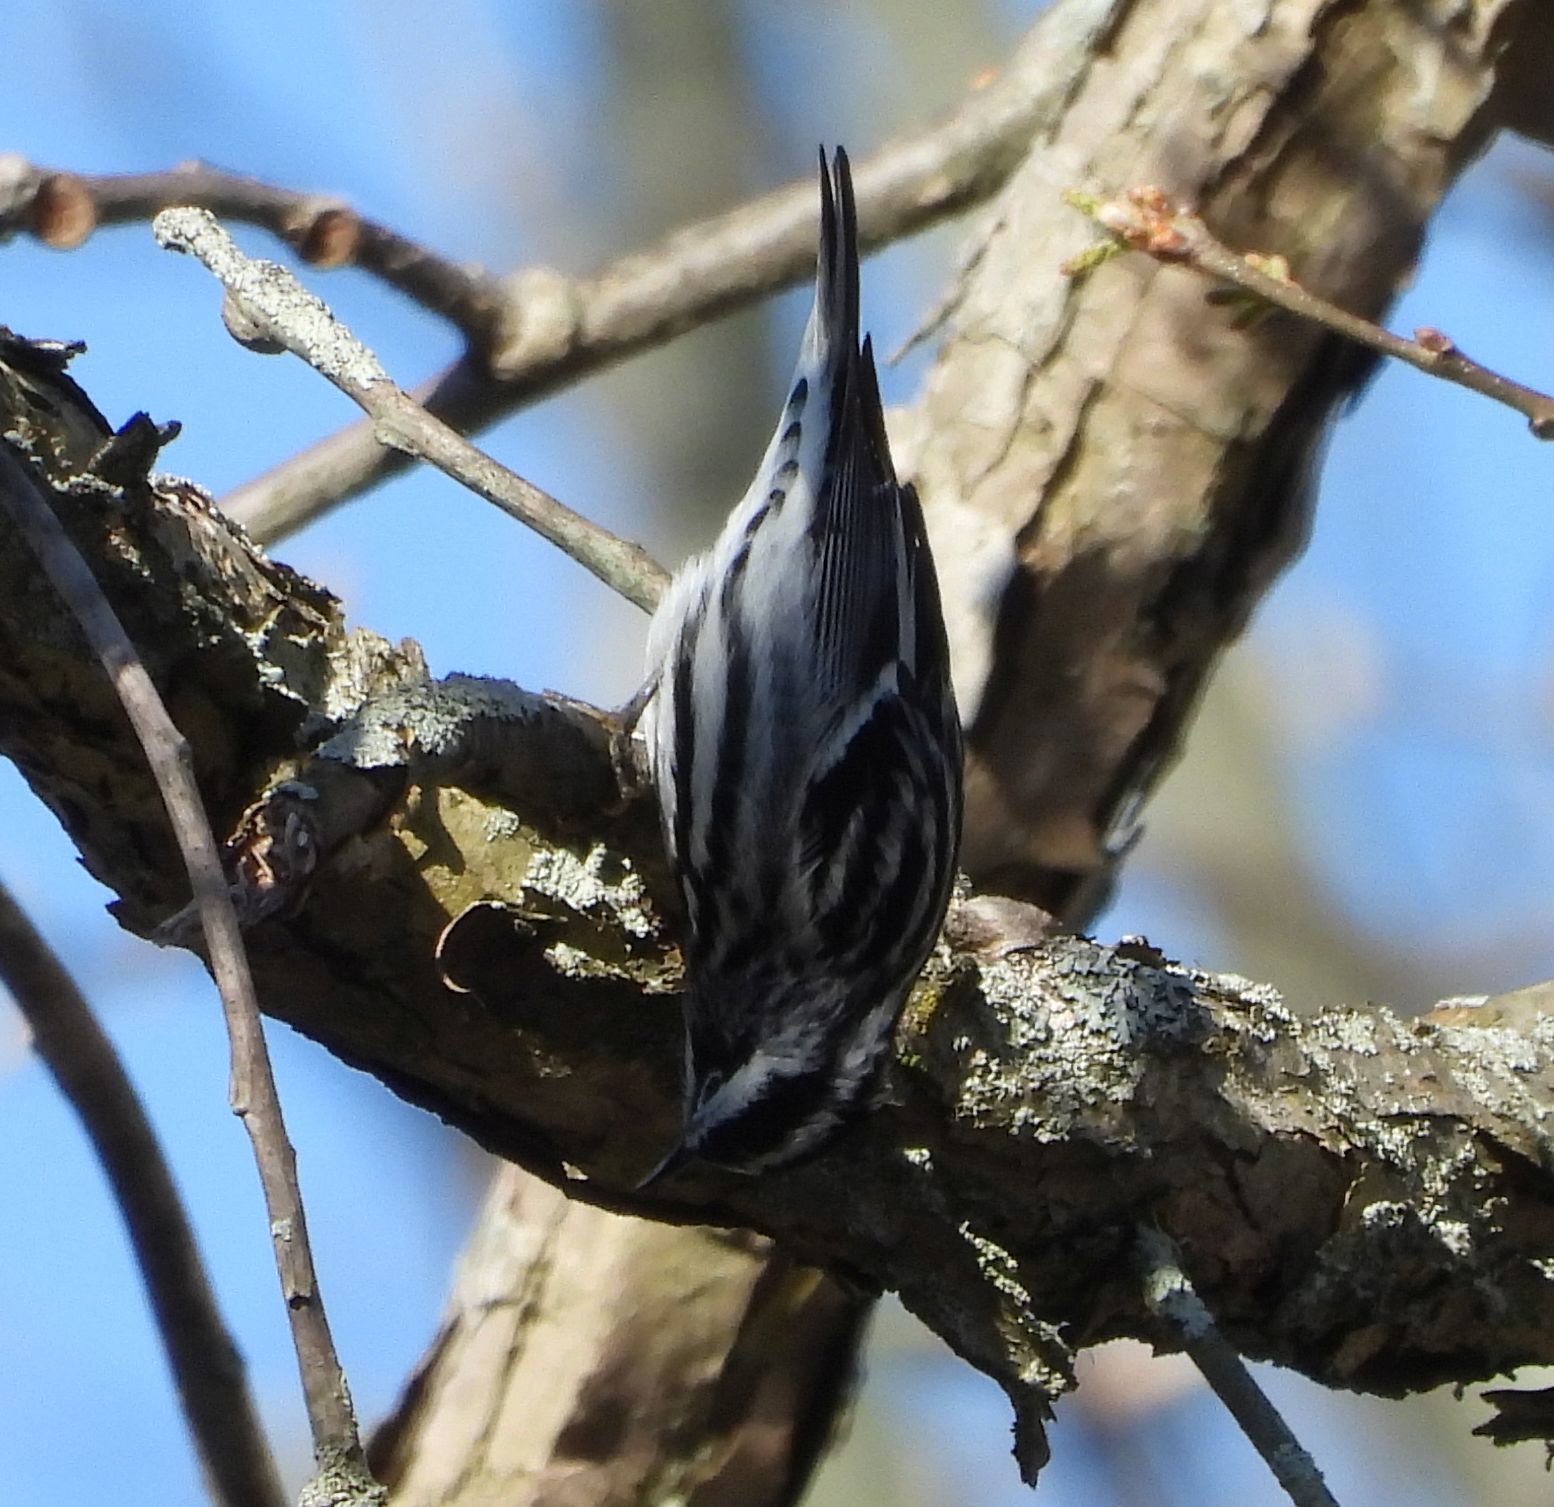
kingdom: Animalia
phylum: Chordata
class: Aves
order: Passeriformes
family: Parulidae
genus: Mniotilta
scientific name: Mniotilta varia
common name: Black-and-white warbler
